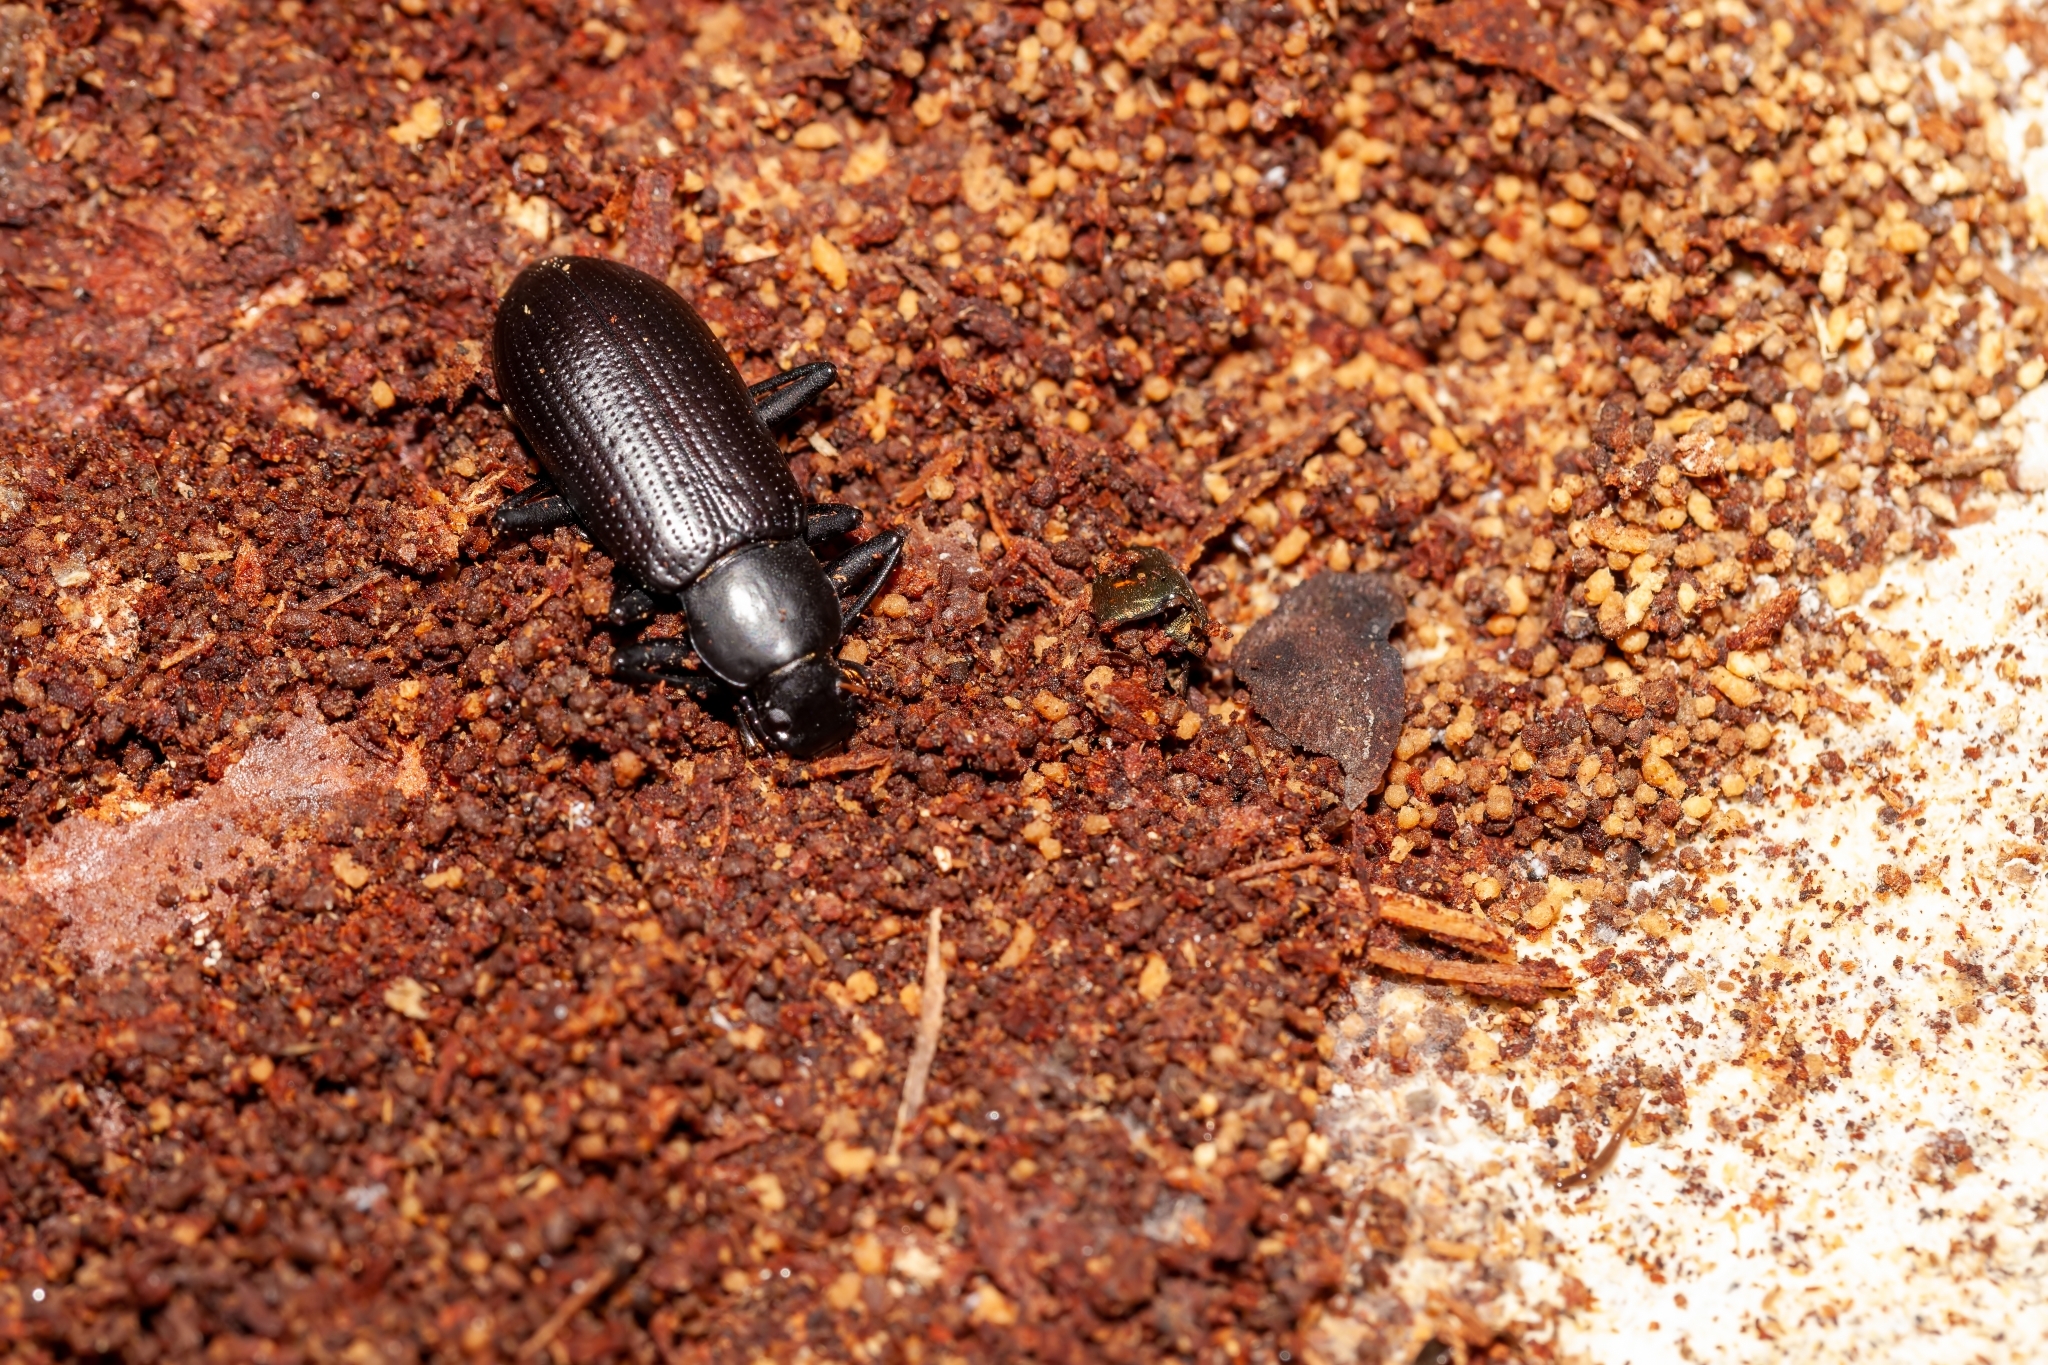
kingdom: Animalia
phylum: Arthropoda
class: Insecta
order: Coleoptera
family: Tenebrionidae
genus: Alobates
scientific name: Alobates
